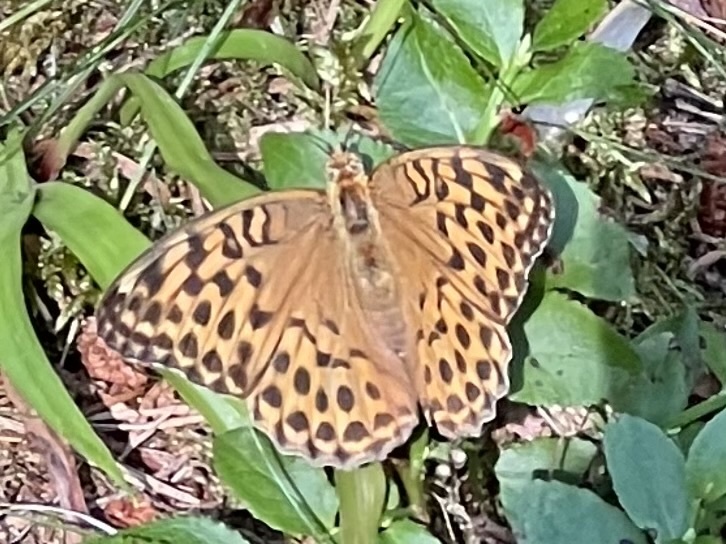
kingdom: Animalia
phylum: Arthropoda
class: Insecta
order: Lepidoptera
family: Nymphalidae
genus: Argynnis
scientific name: Argynnis paphia
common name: Silver-washed fritillary
